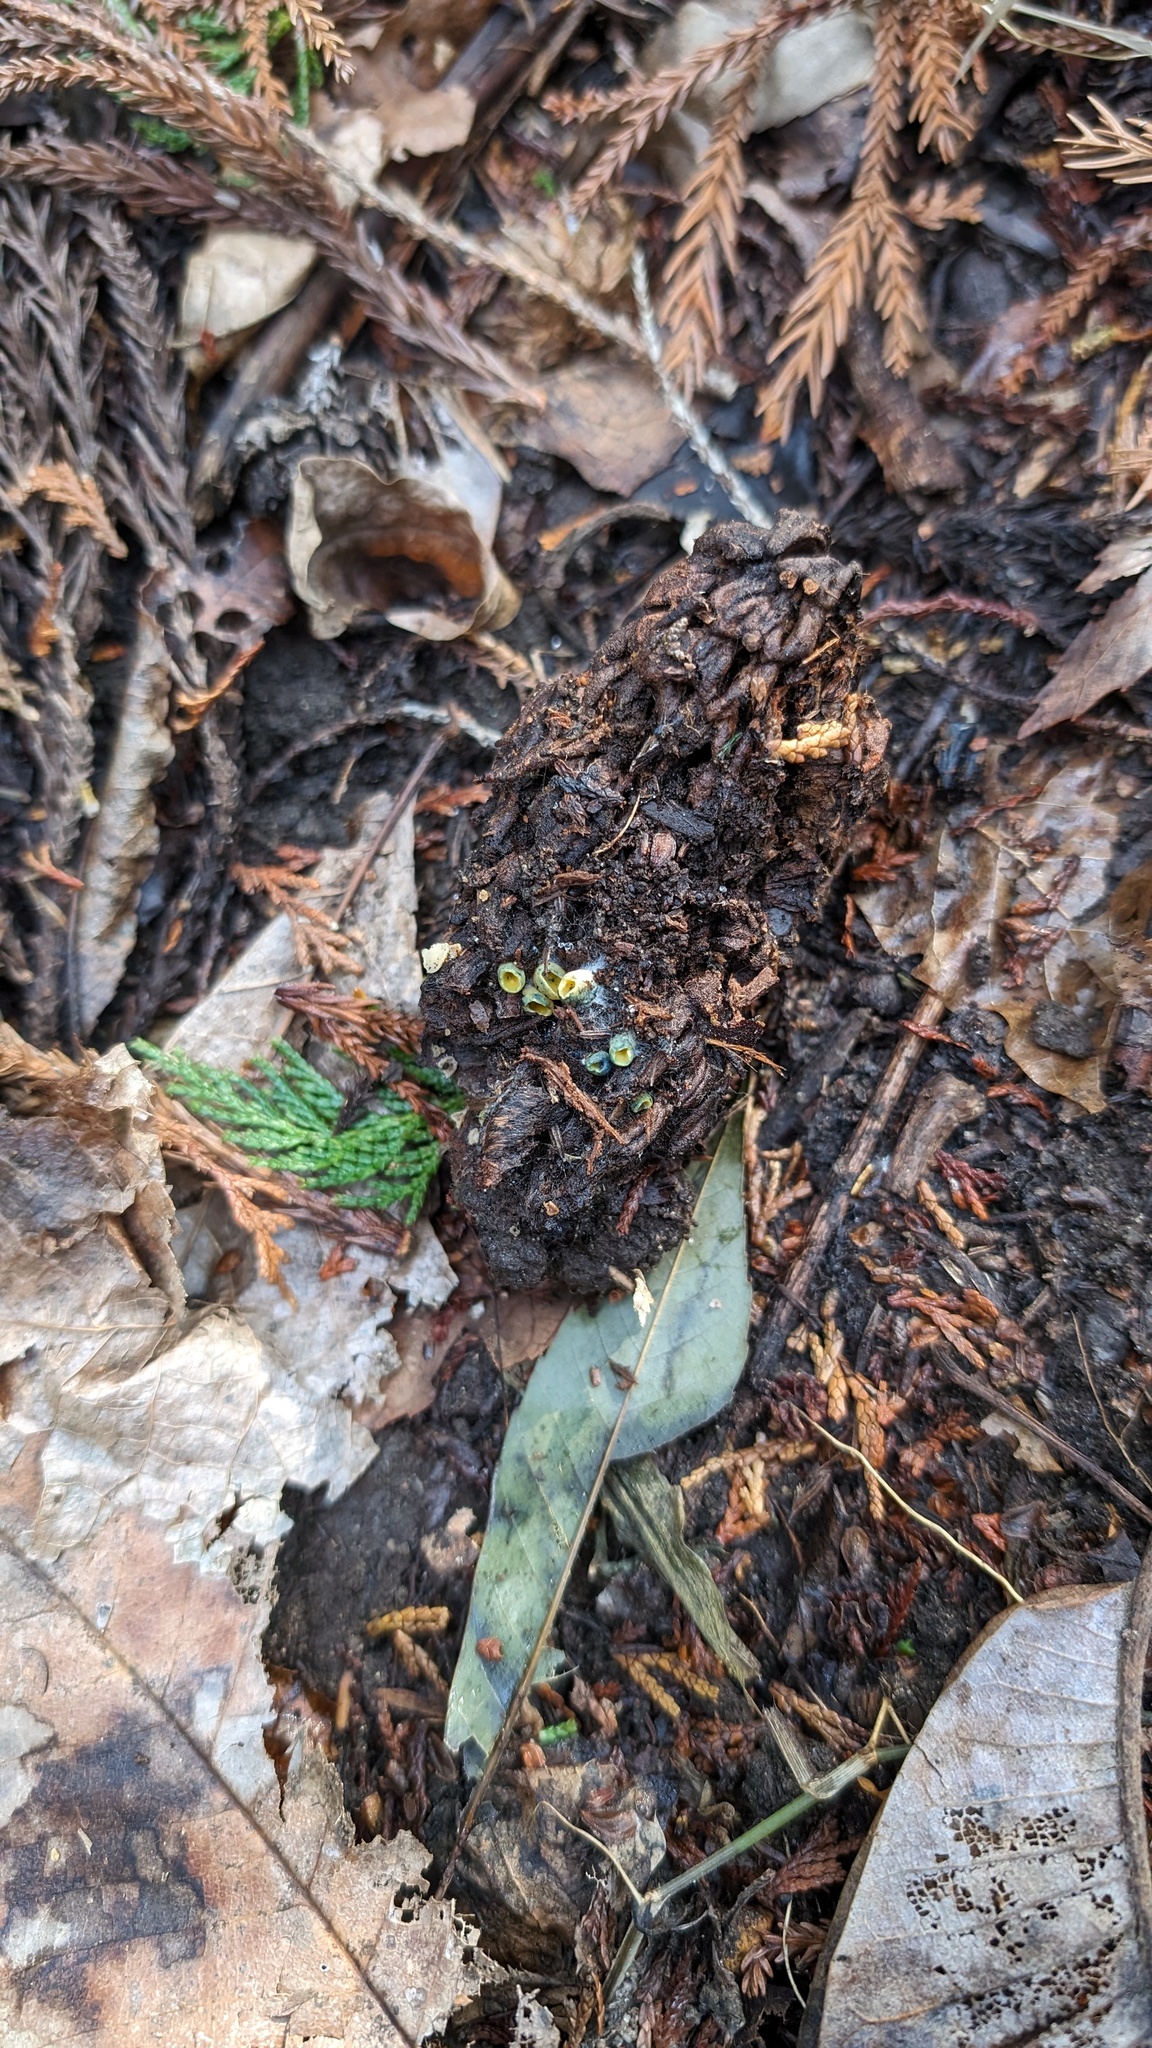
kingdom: Fungi
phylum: Ascomycota
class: Pezizomycetes
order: Pezizales
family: Caloscyphaceae
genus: Caloscypha
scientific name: Caloscypha fulgens
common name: Golden cup
